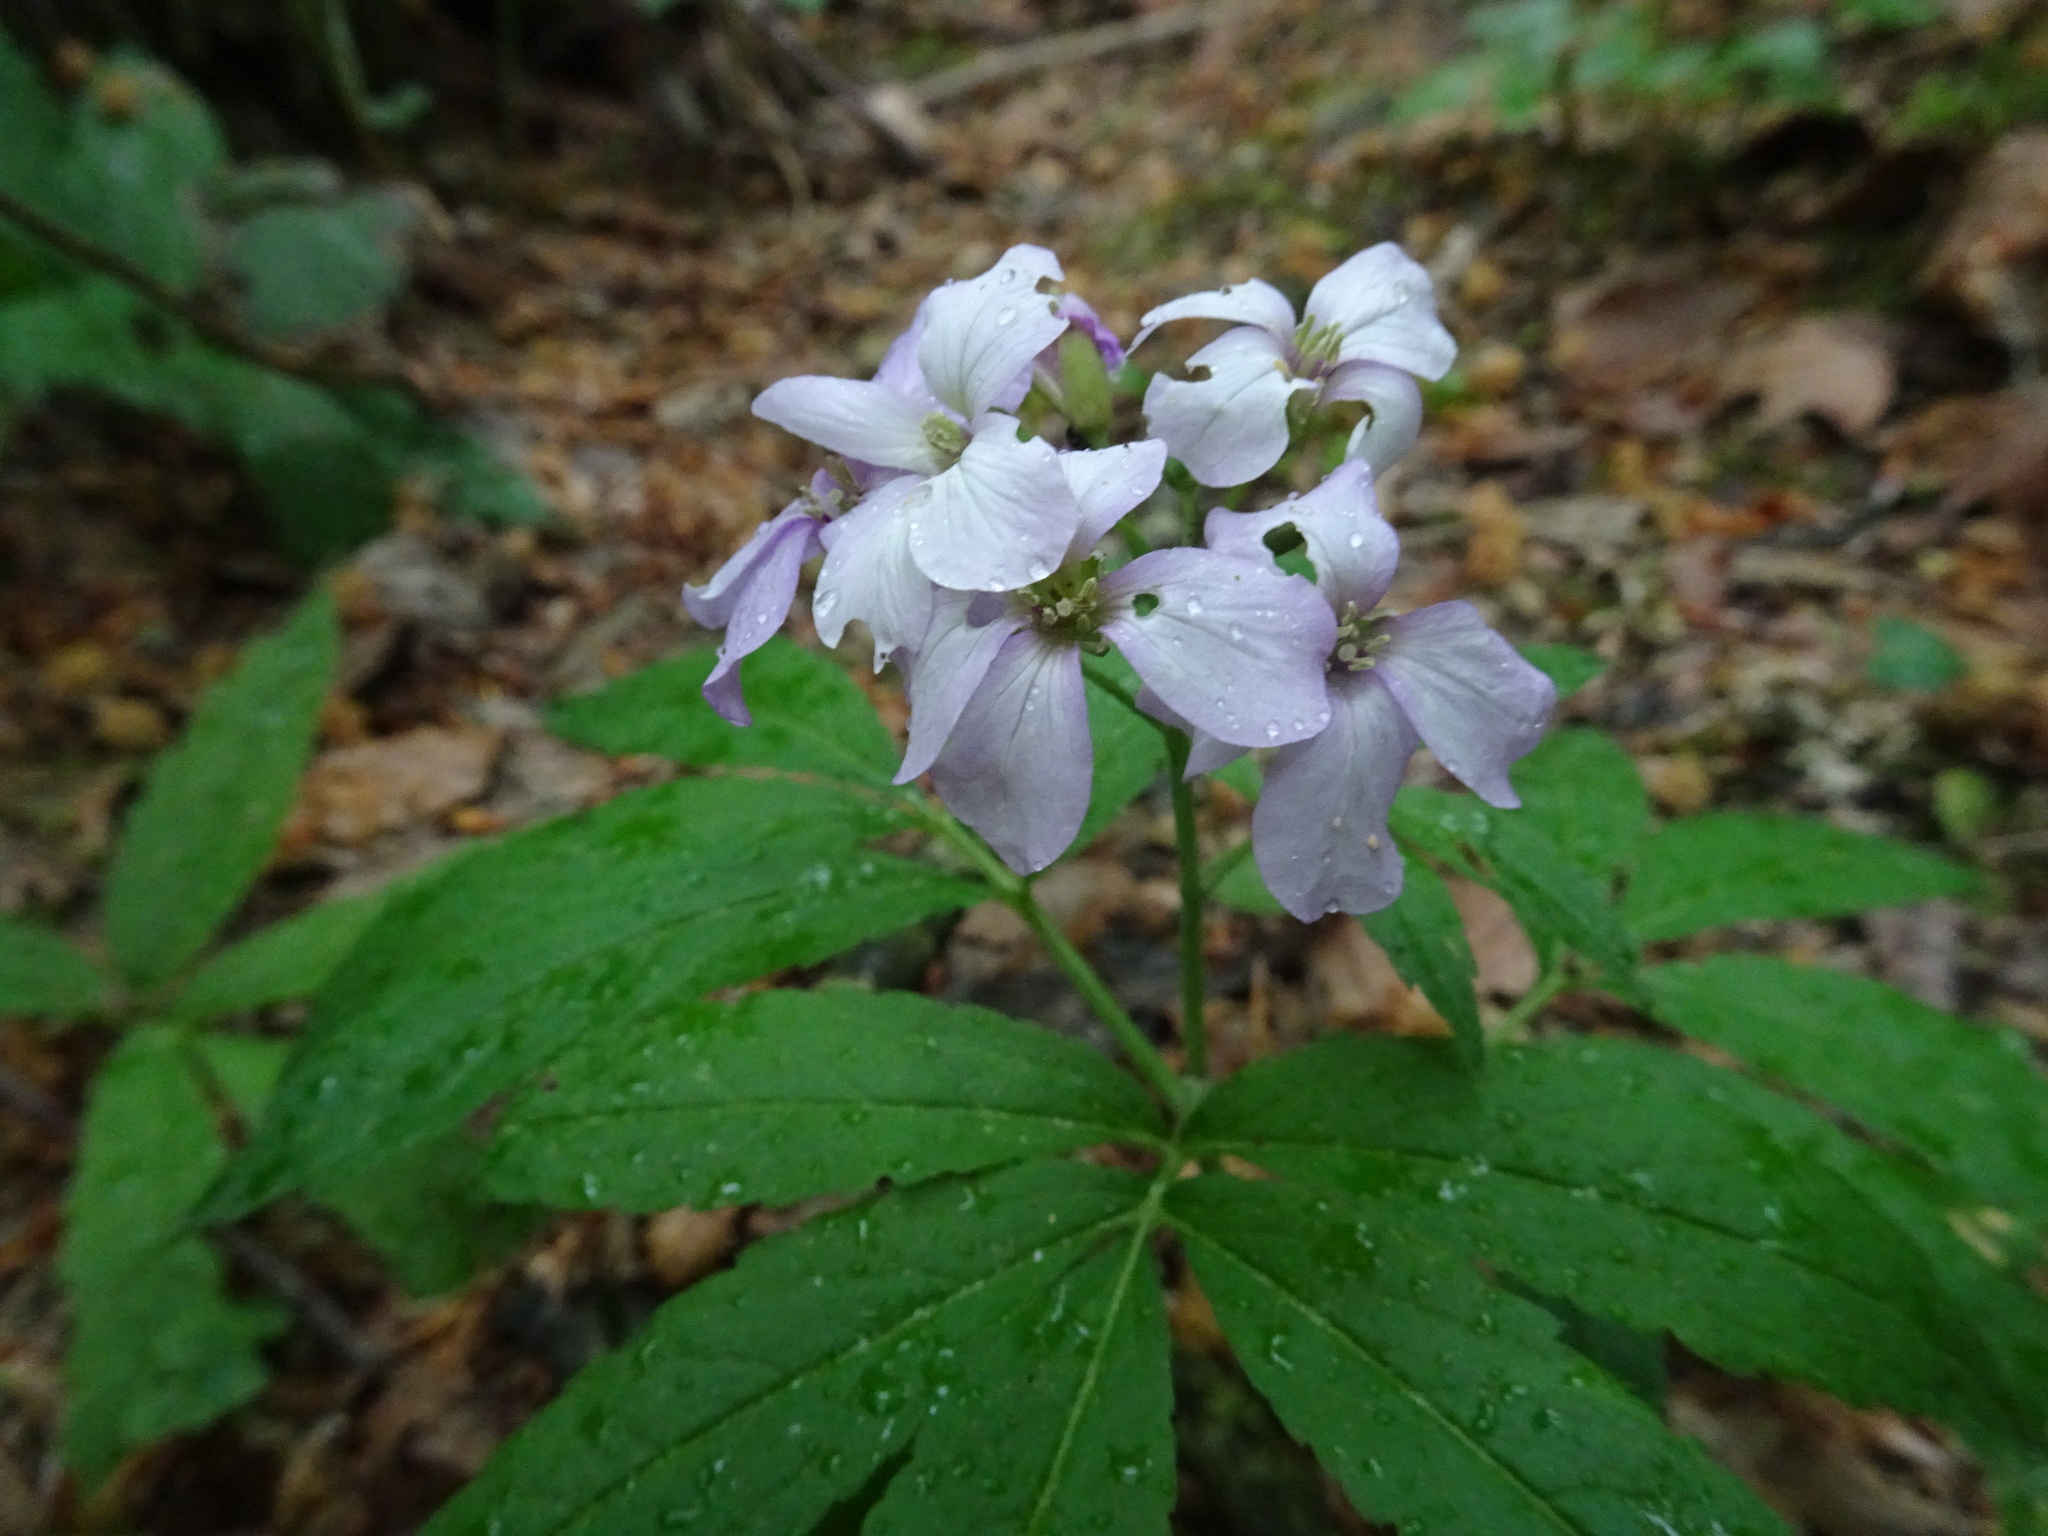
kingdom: Plantae
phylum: Tracheophyta
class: Magnoliopsida
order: Brassicales
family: Brassicaceae
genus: Cardamine
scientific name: Cardamine heptaphylla
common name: Pinnate coralroot
